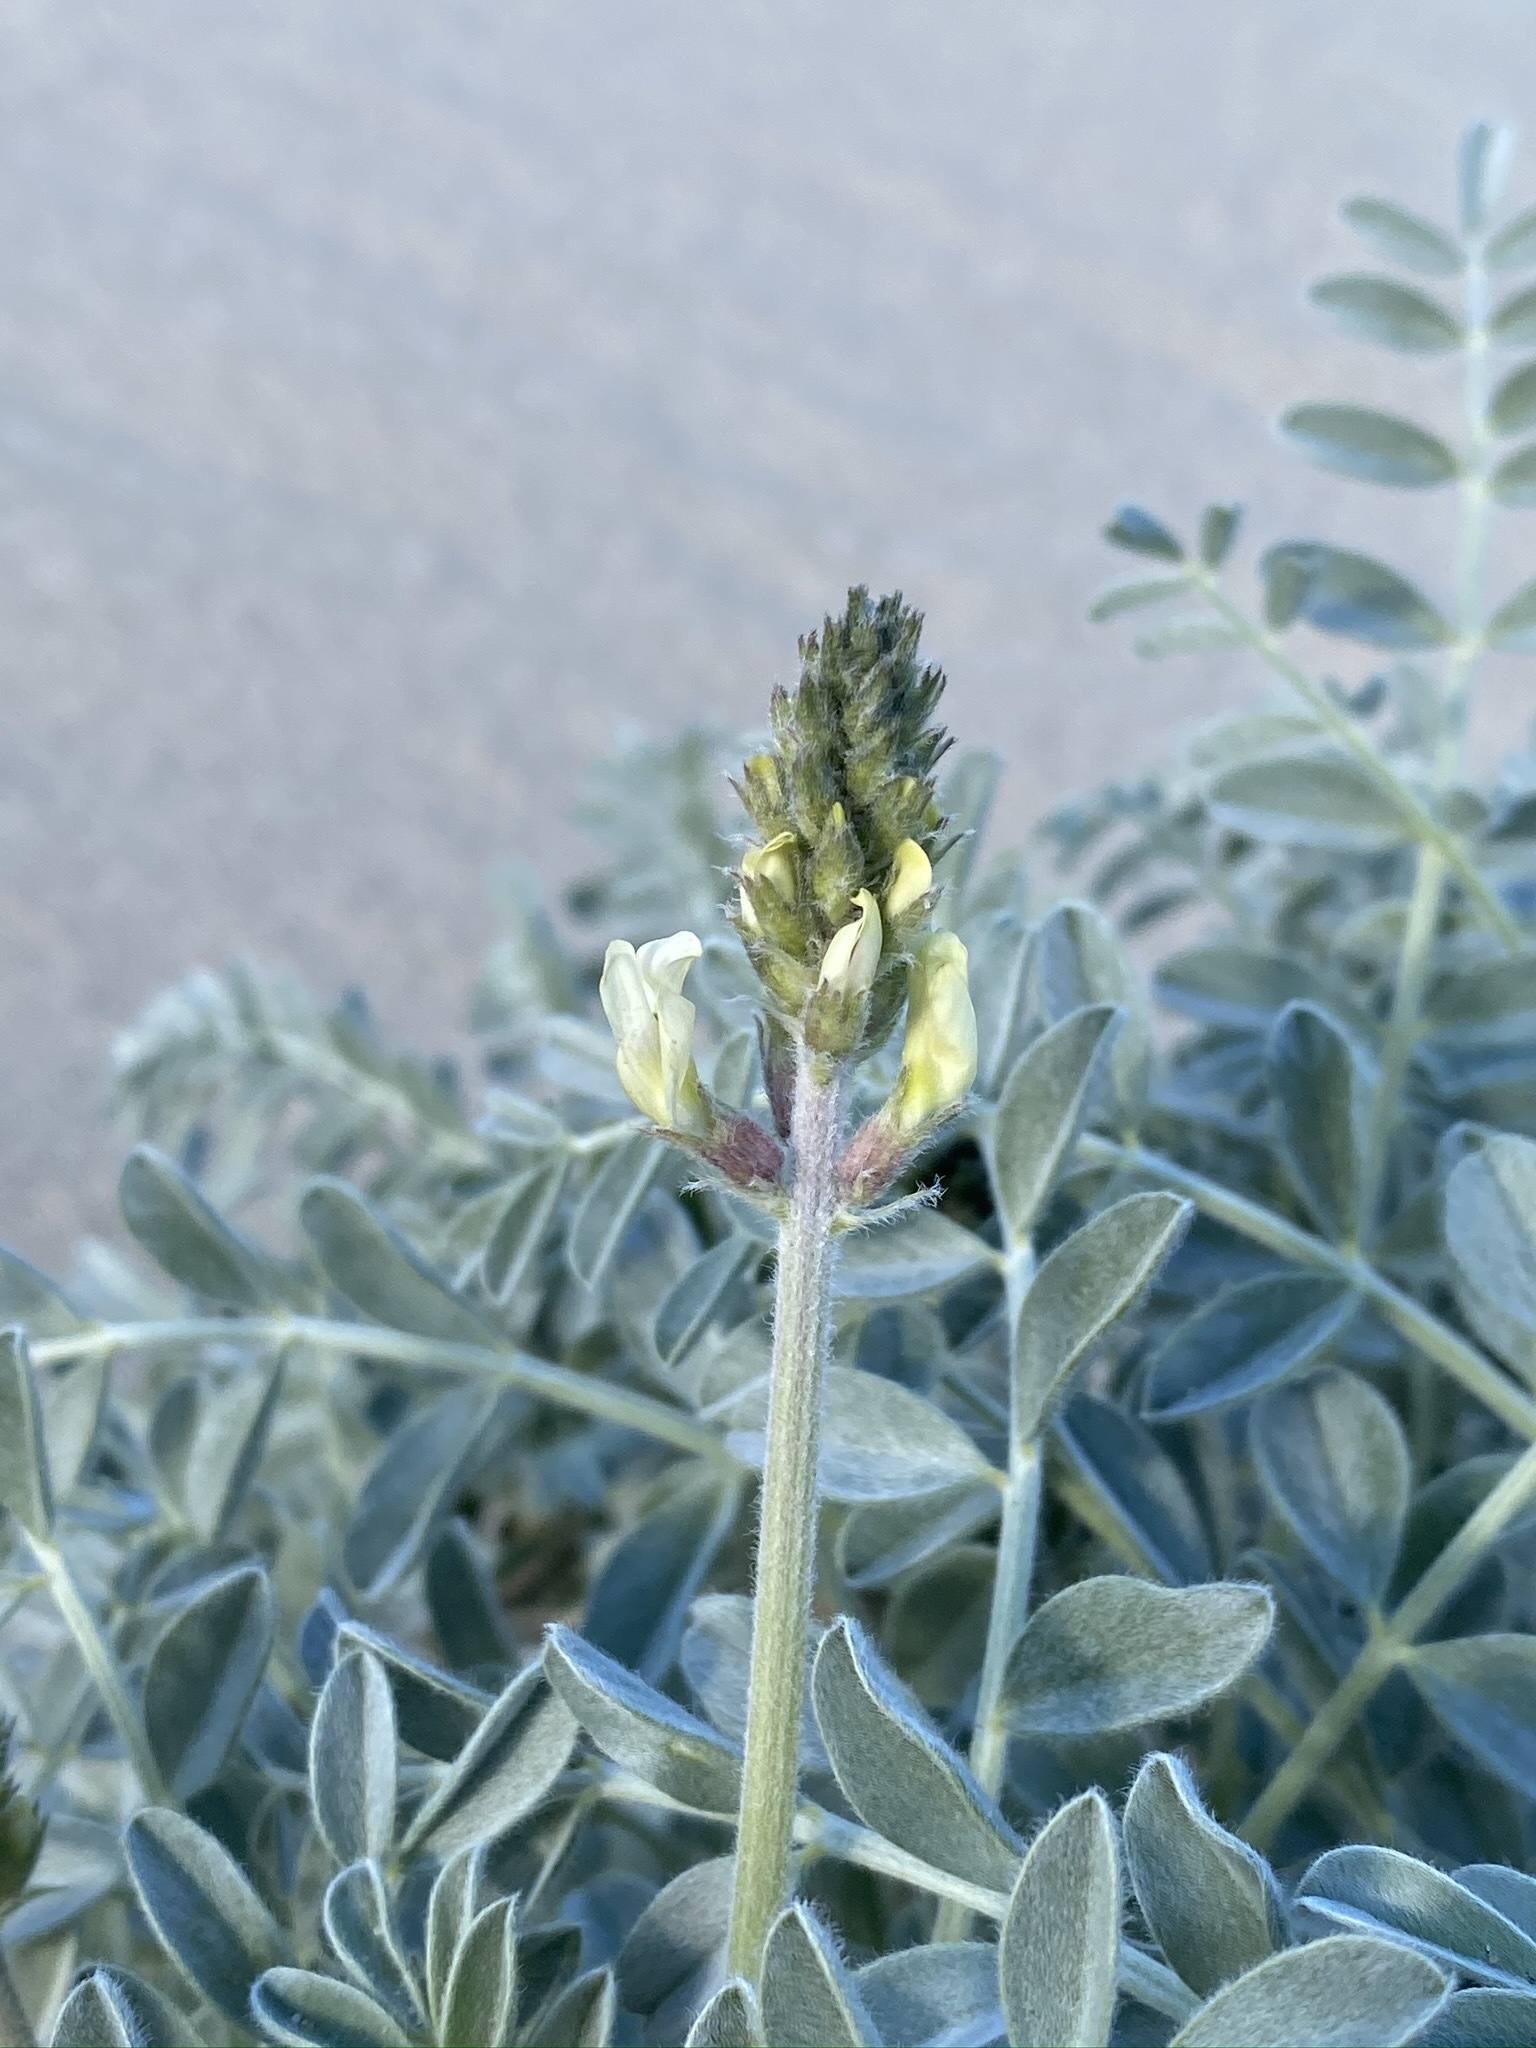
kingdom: Plantae
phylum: Tracheophyta
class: Magnoliopsida
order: Fabales
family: Fabaceae
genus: Astragalus
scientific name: Astragalus lentiginosus
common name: Freckled milkvetch
